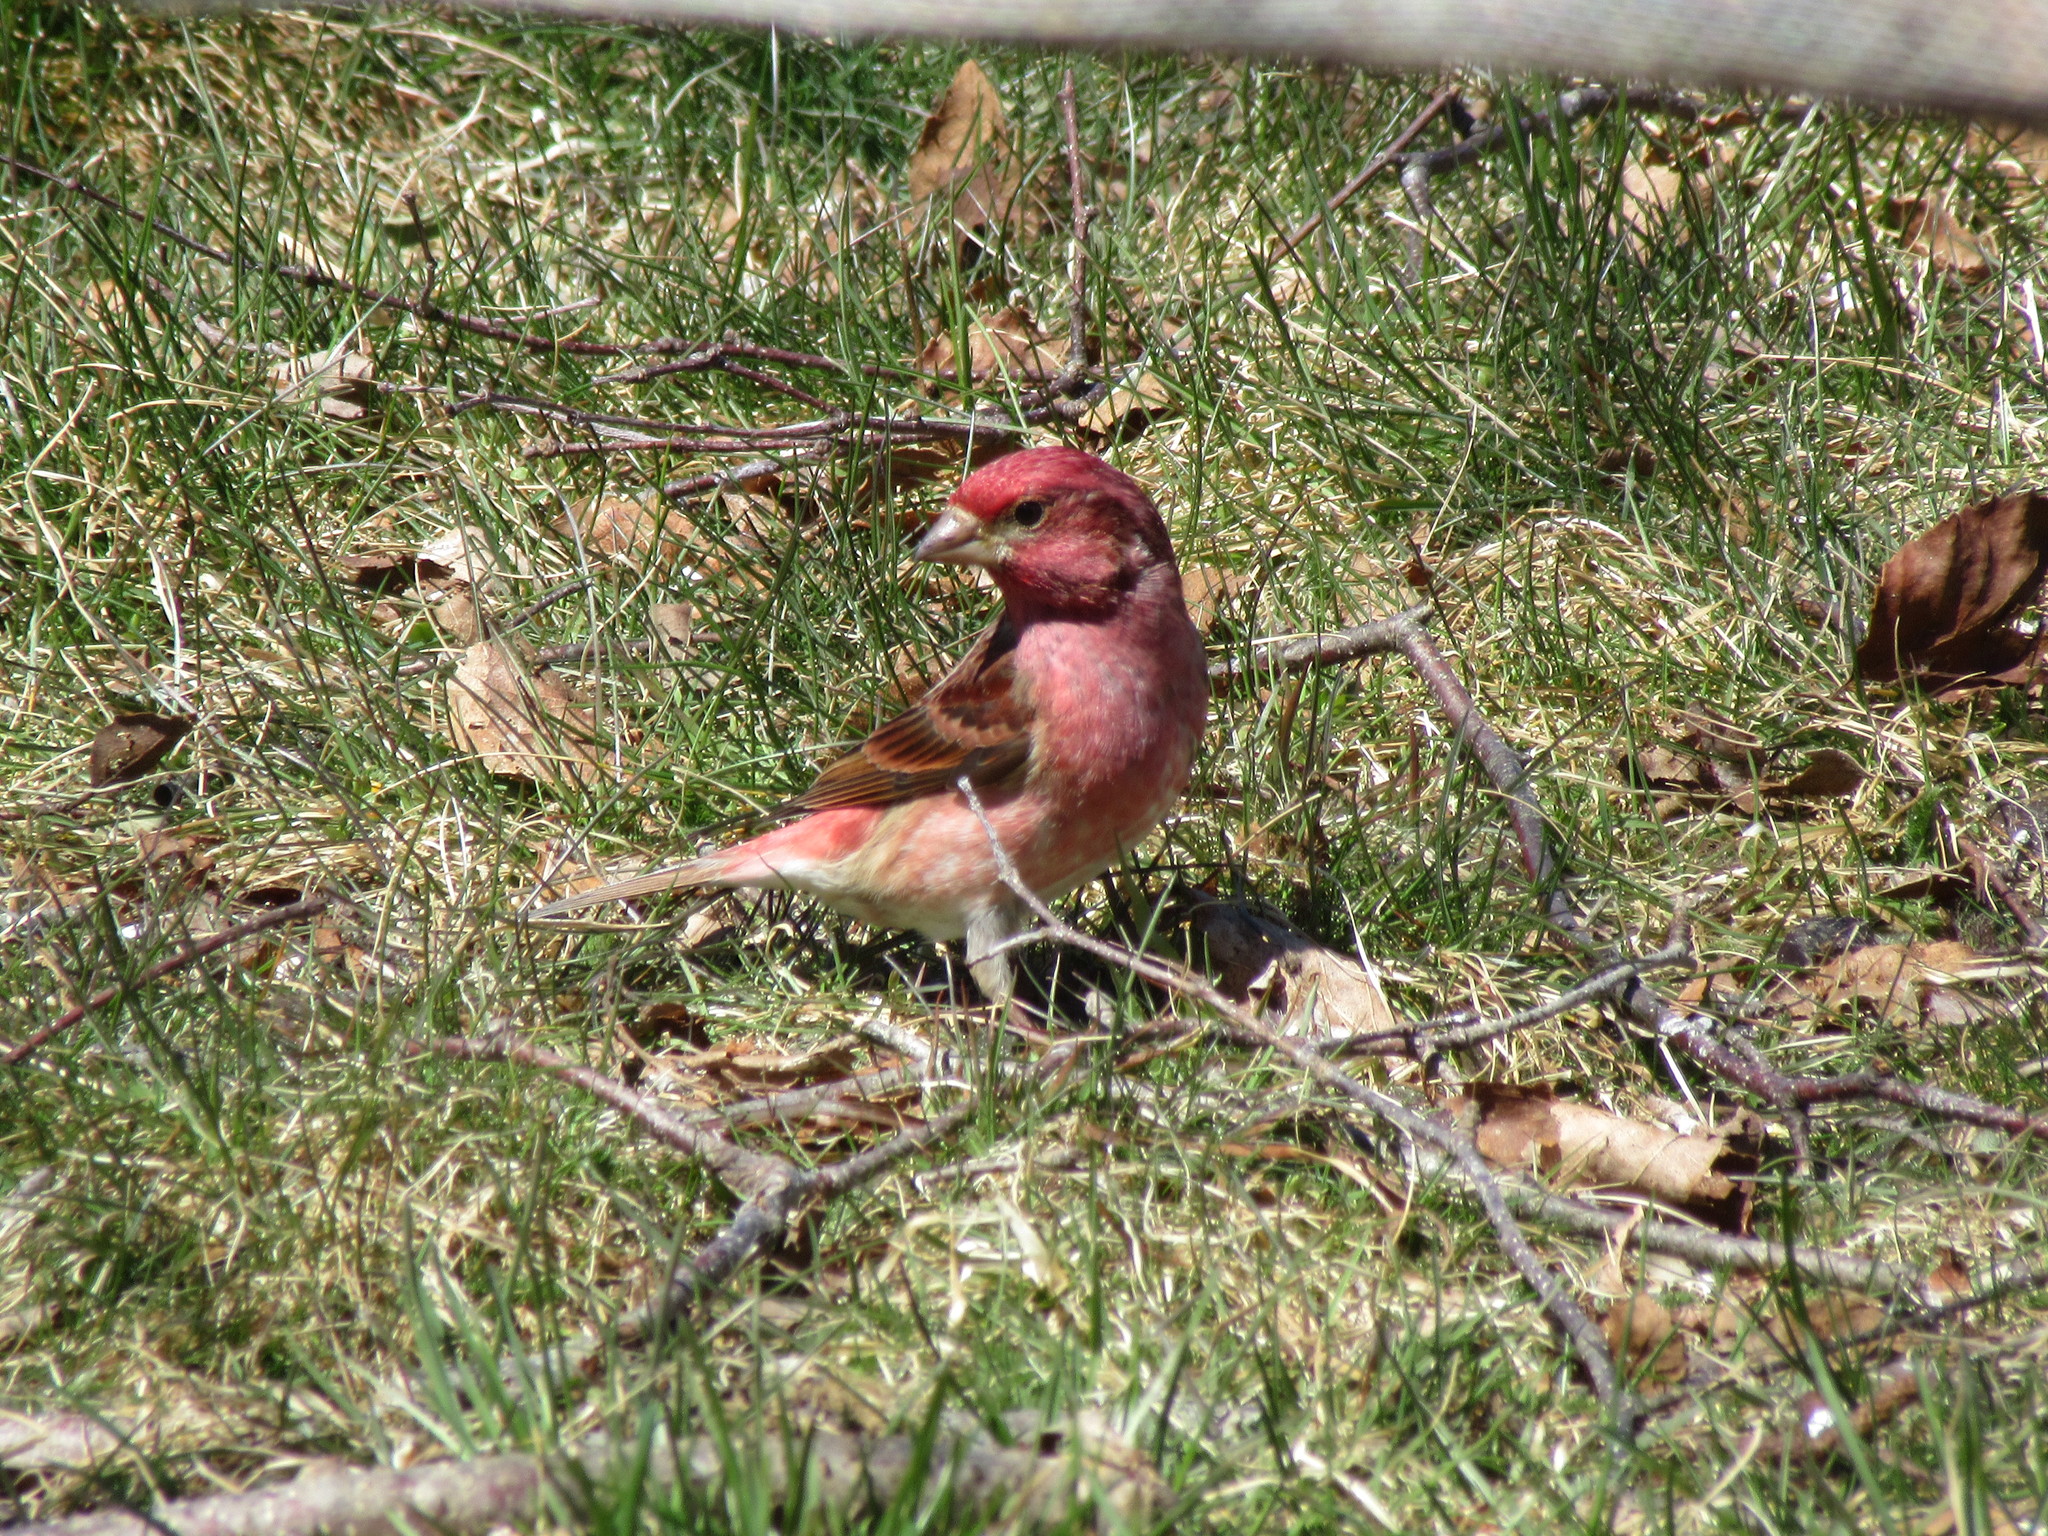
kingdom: Animalia
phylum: Chordata
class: Aves
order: Passeriformes
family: Fringillidae
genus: Haemorhous
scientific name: Haemorhous purpureus
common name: Purple finch
